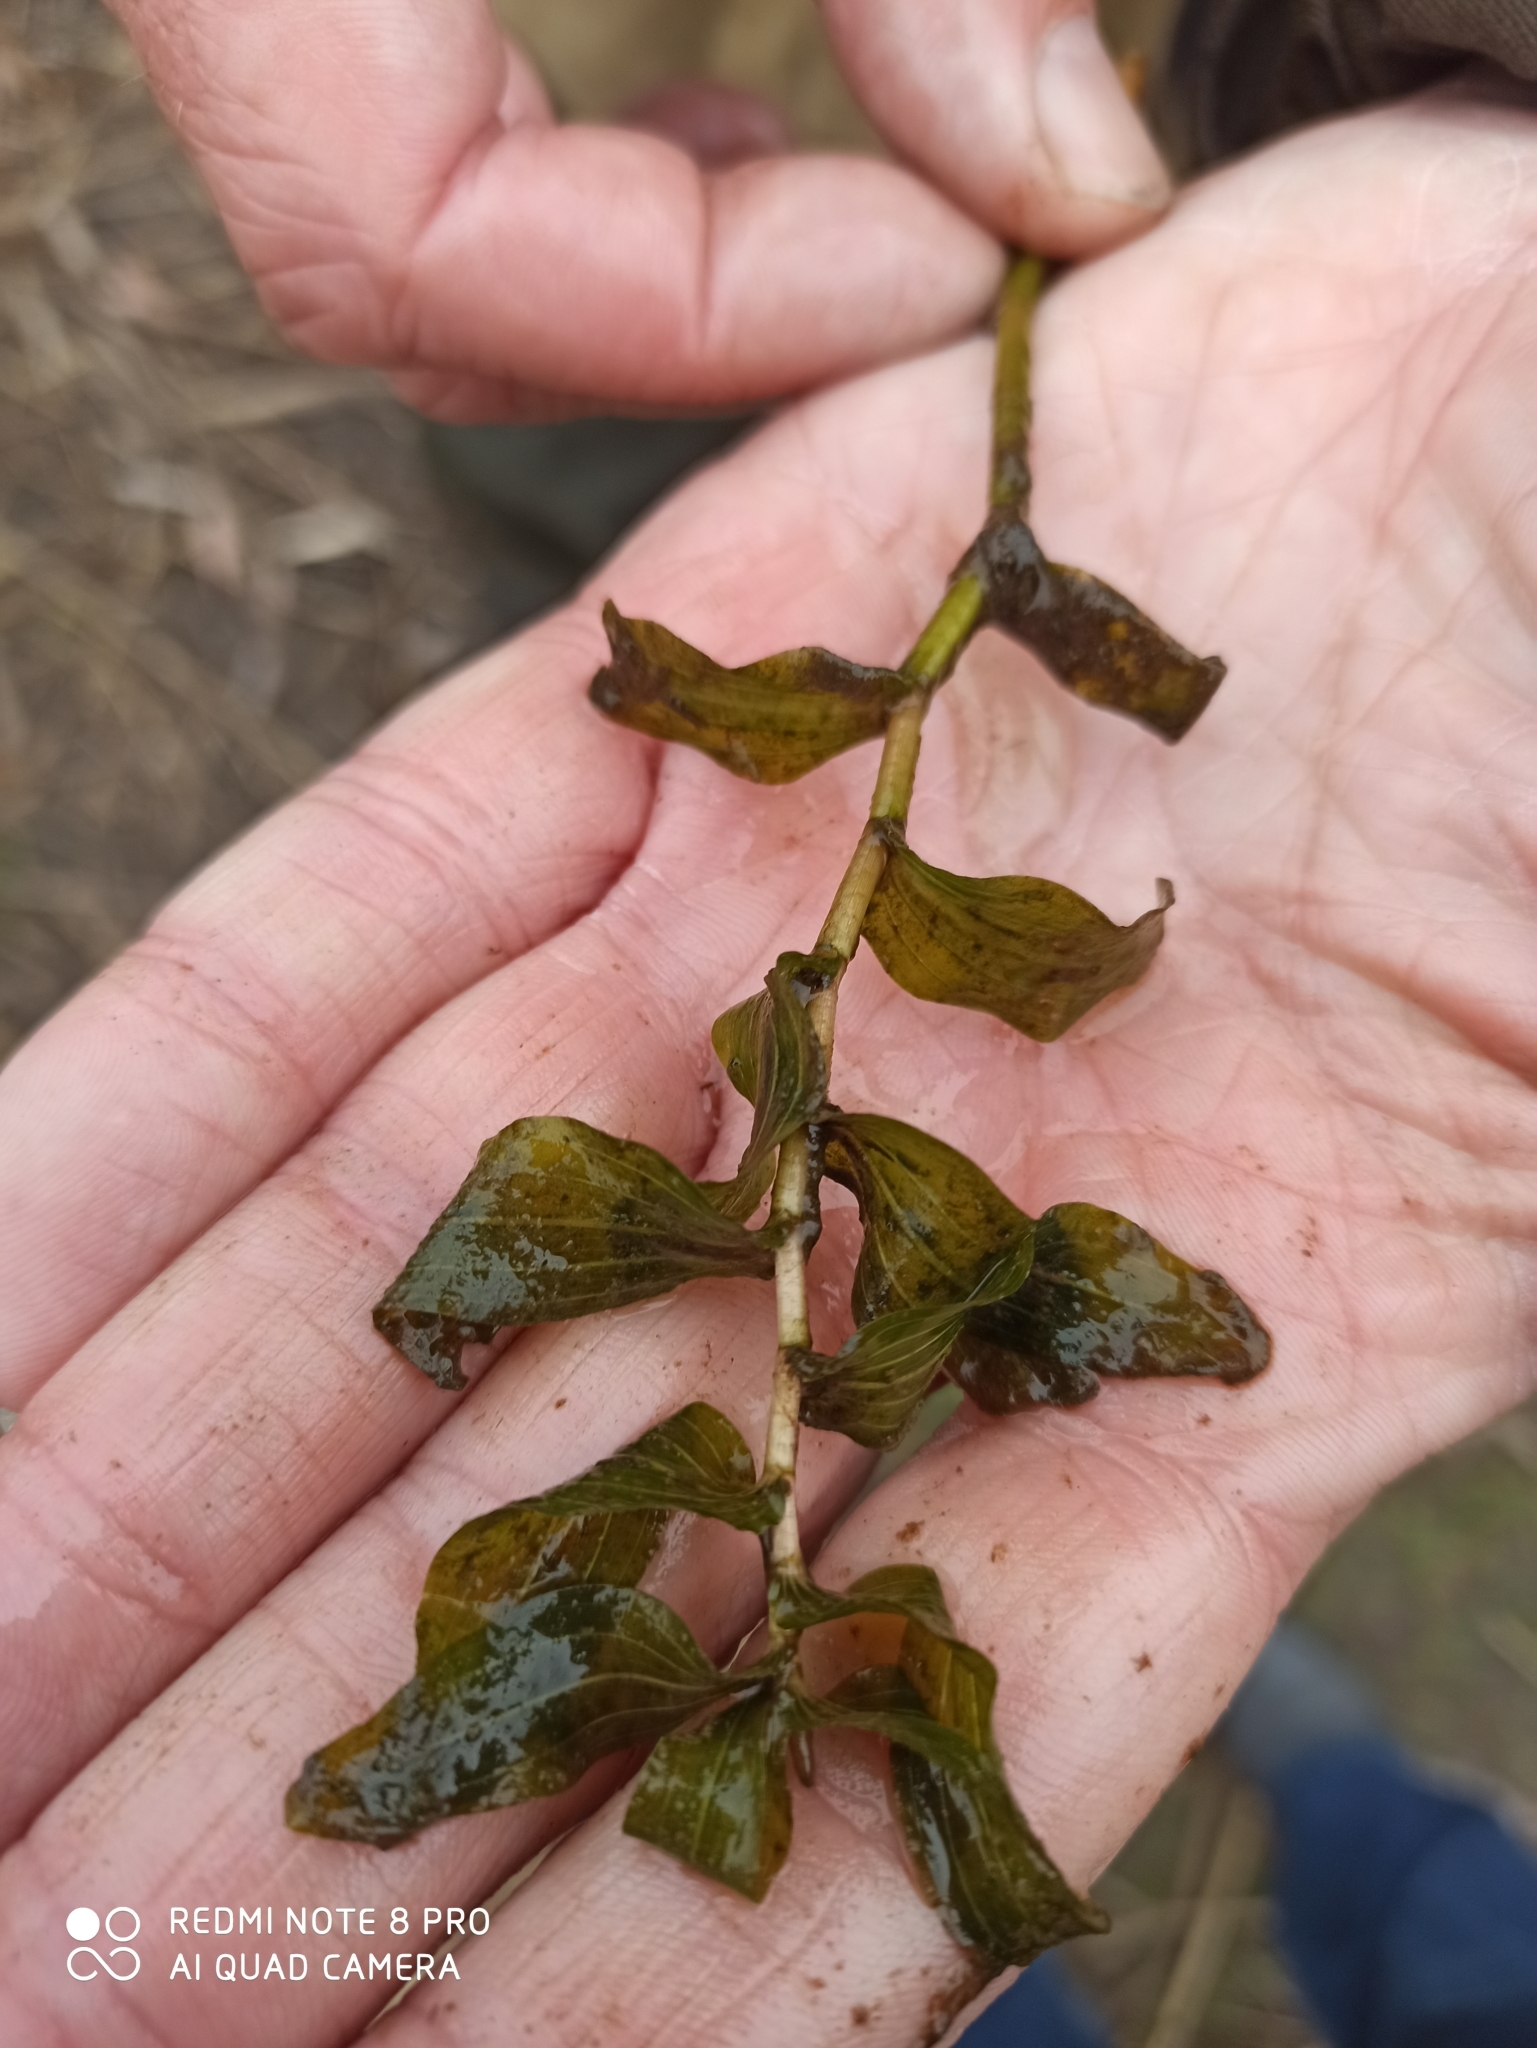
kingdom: Plantae
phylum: Tracheophyta
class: Liliopsida
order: Alismatales
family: Potamogetonaceae
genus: Potamogeton
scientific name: Potamogeton perfoliatus
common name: Perfoliate pondweed
